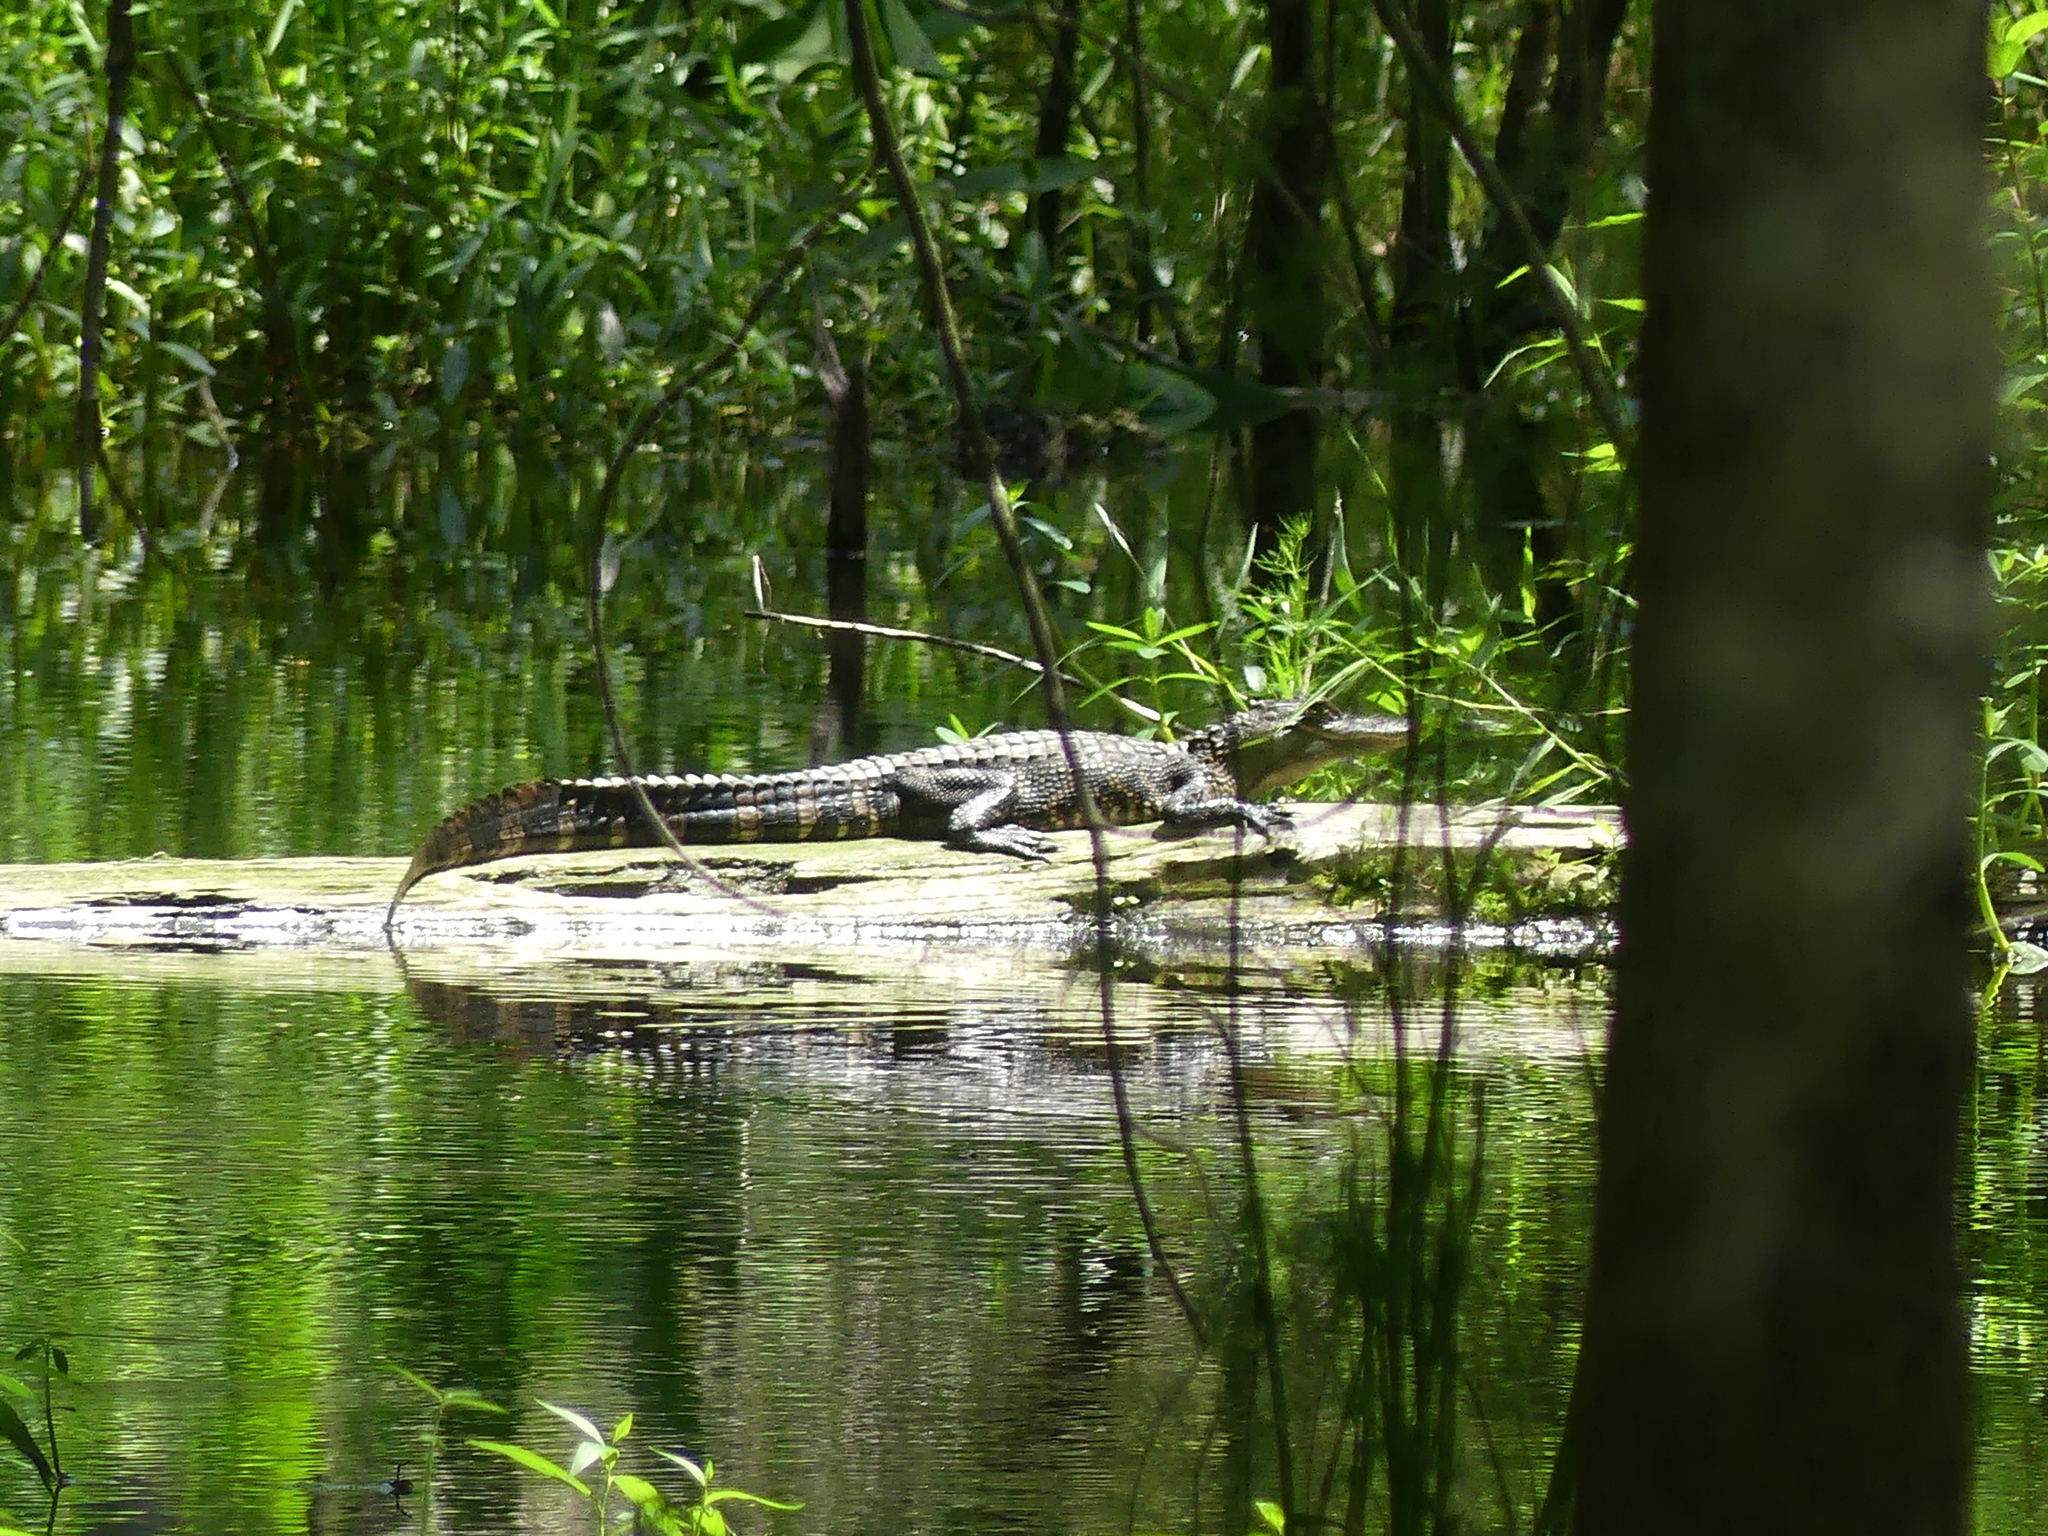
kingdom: Animalia
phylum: Chordata
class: Crocodylia
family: Alligatoridae
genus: Alligator
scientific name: Alligator mississippiensis
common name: American alligator
